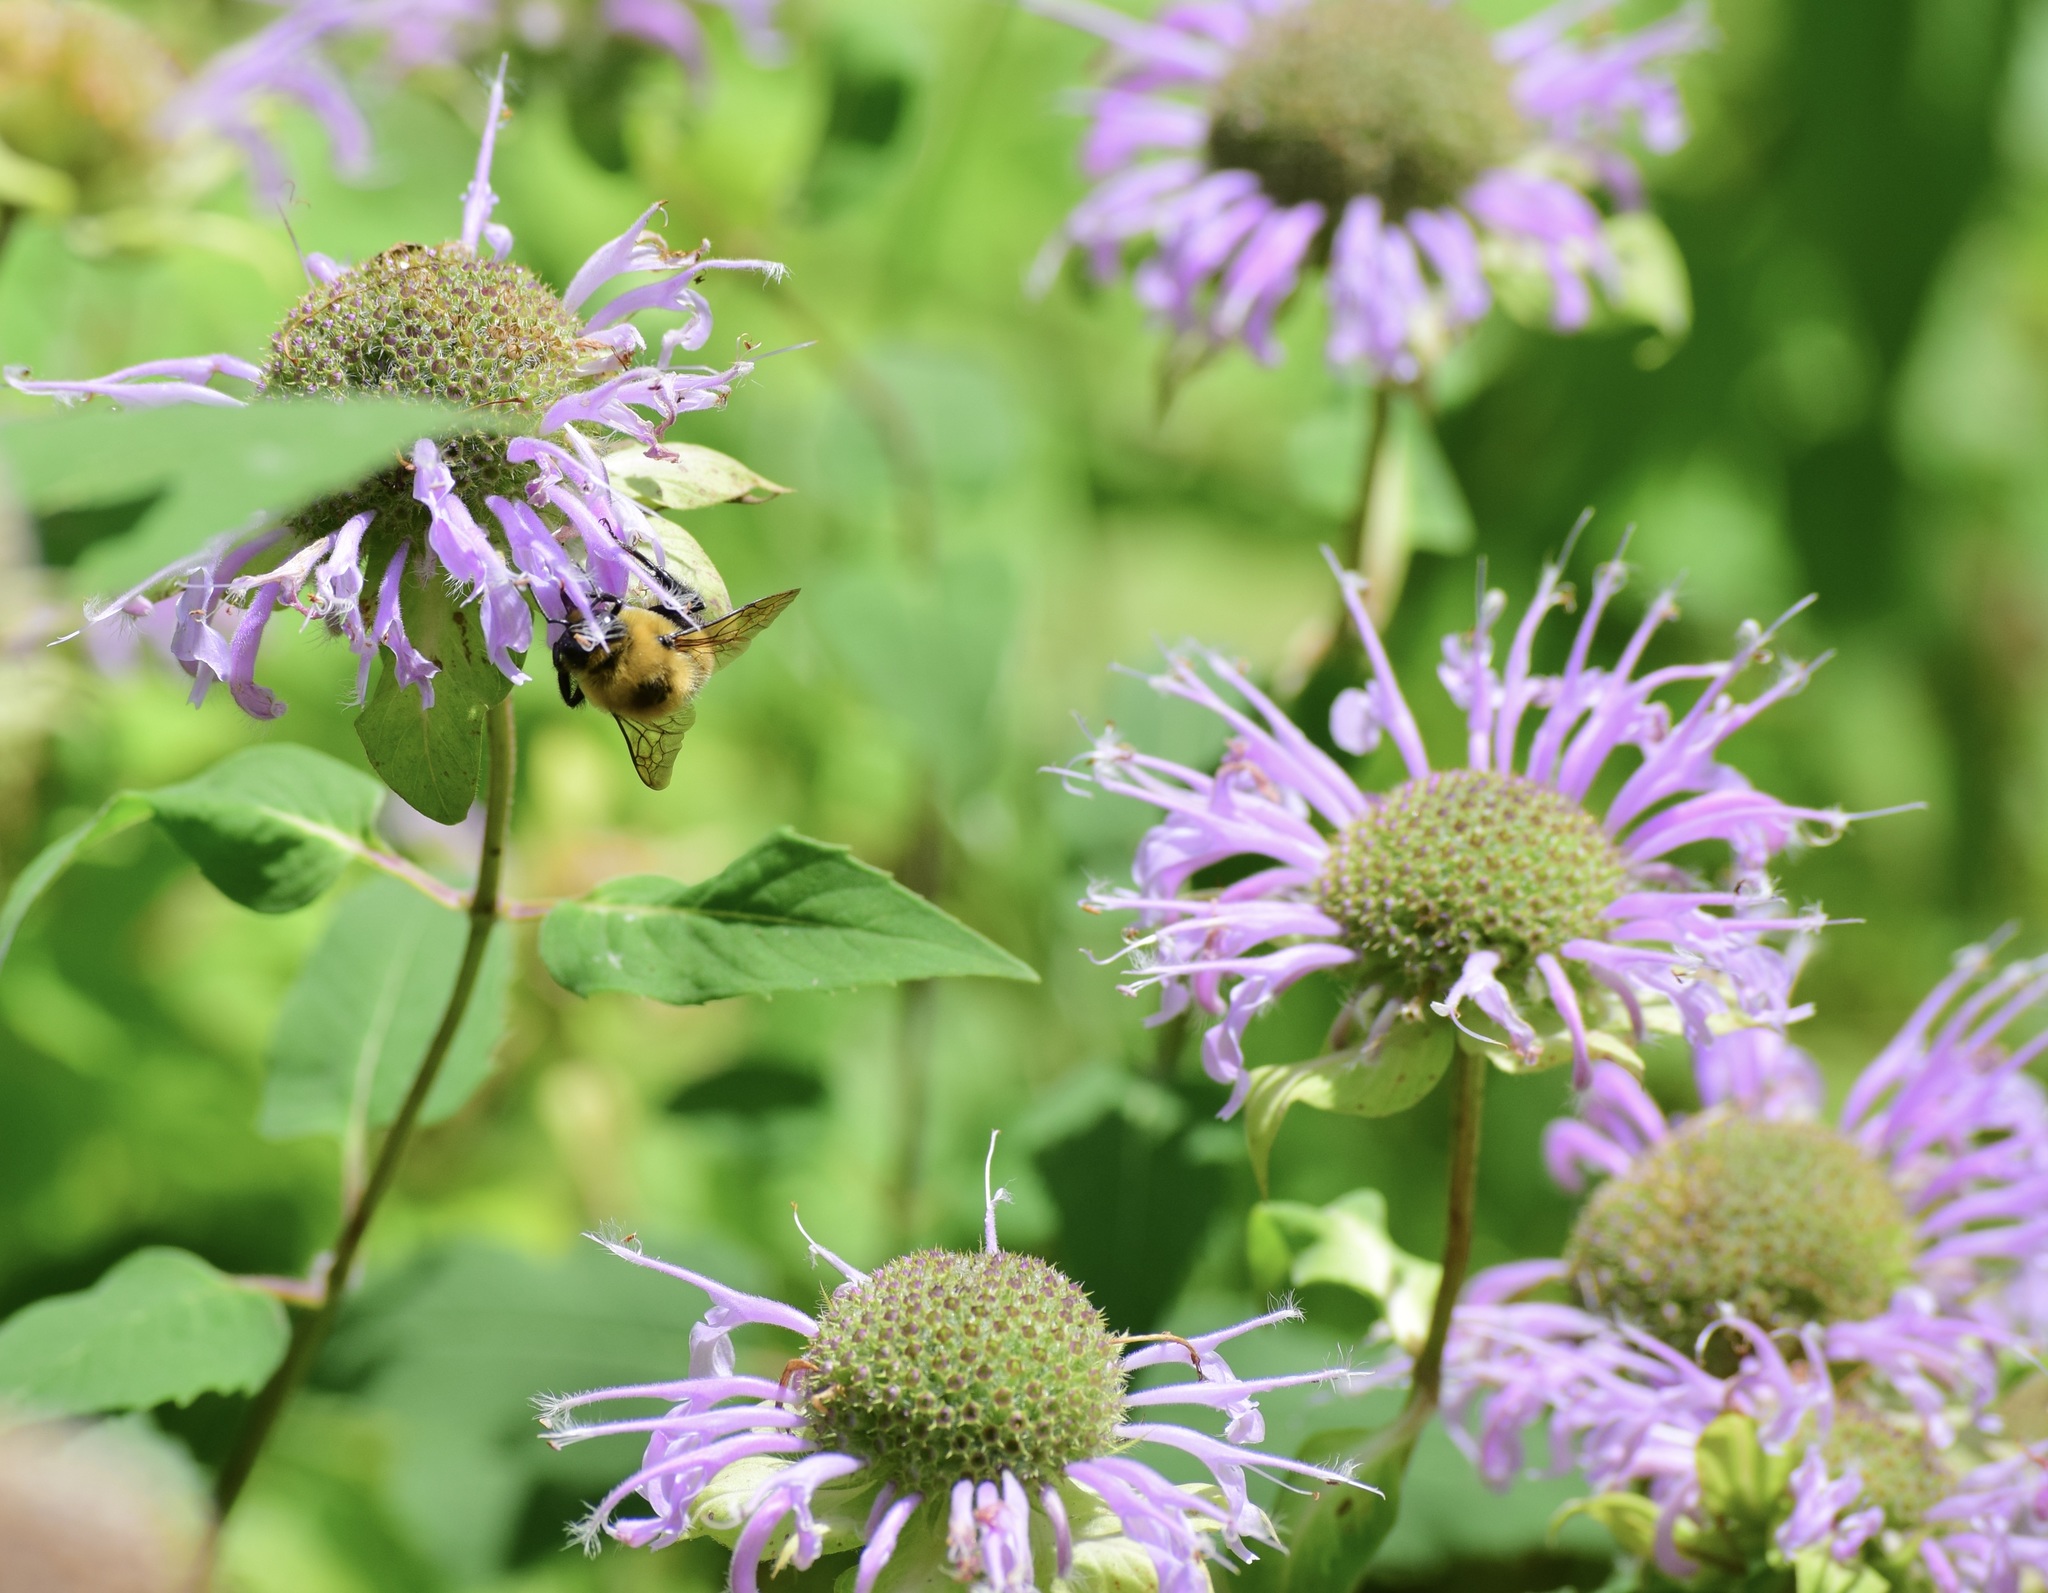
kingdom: Animalia
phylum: Arthropoda
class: Insecta
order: Hymenoptera
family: Apidae
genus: Bombus
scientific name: Bombus griseocollis
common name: Brown-belted bumble bee
